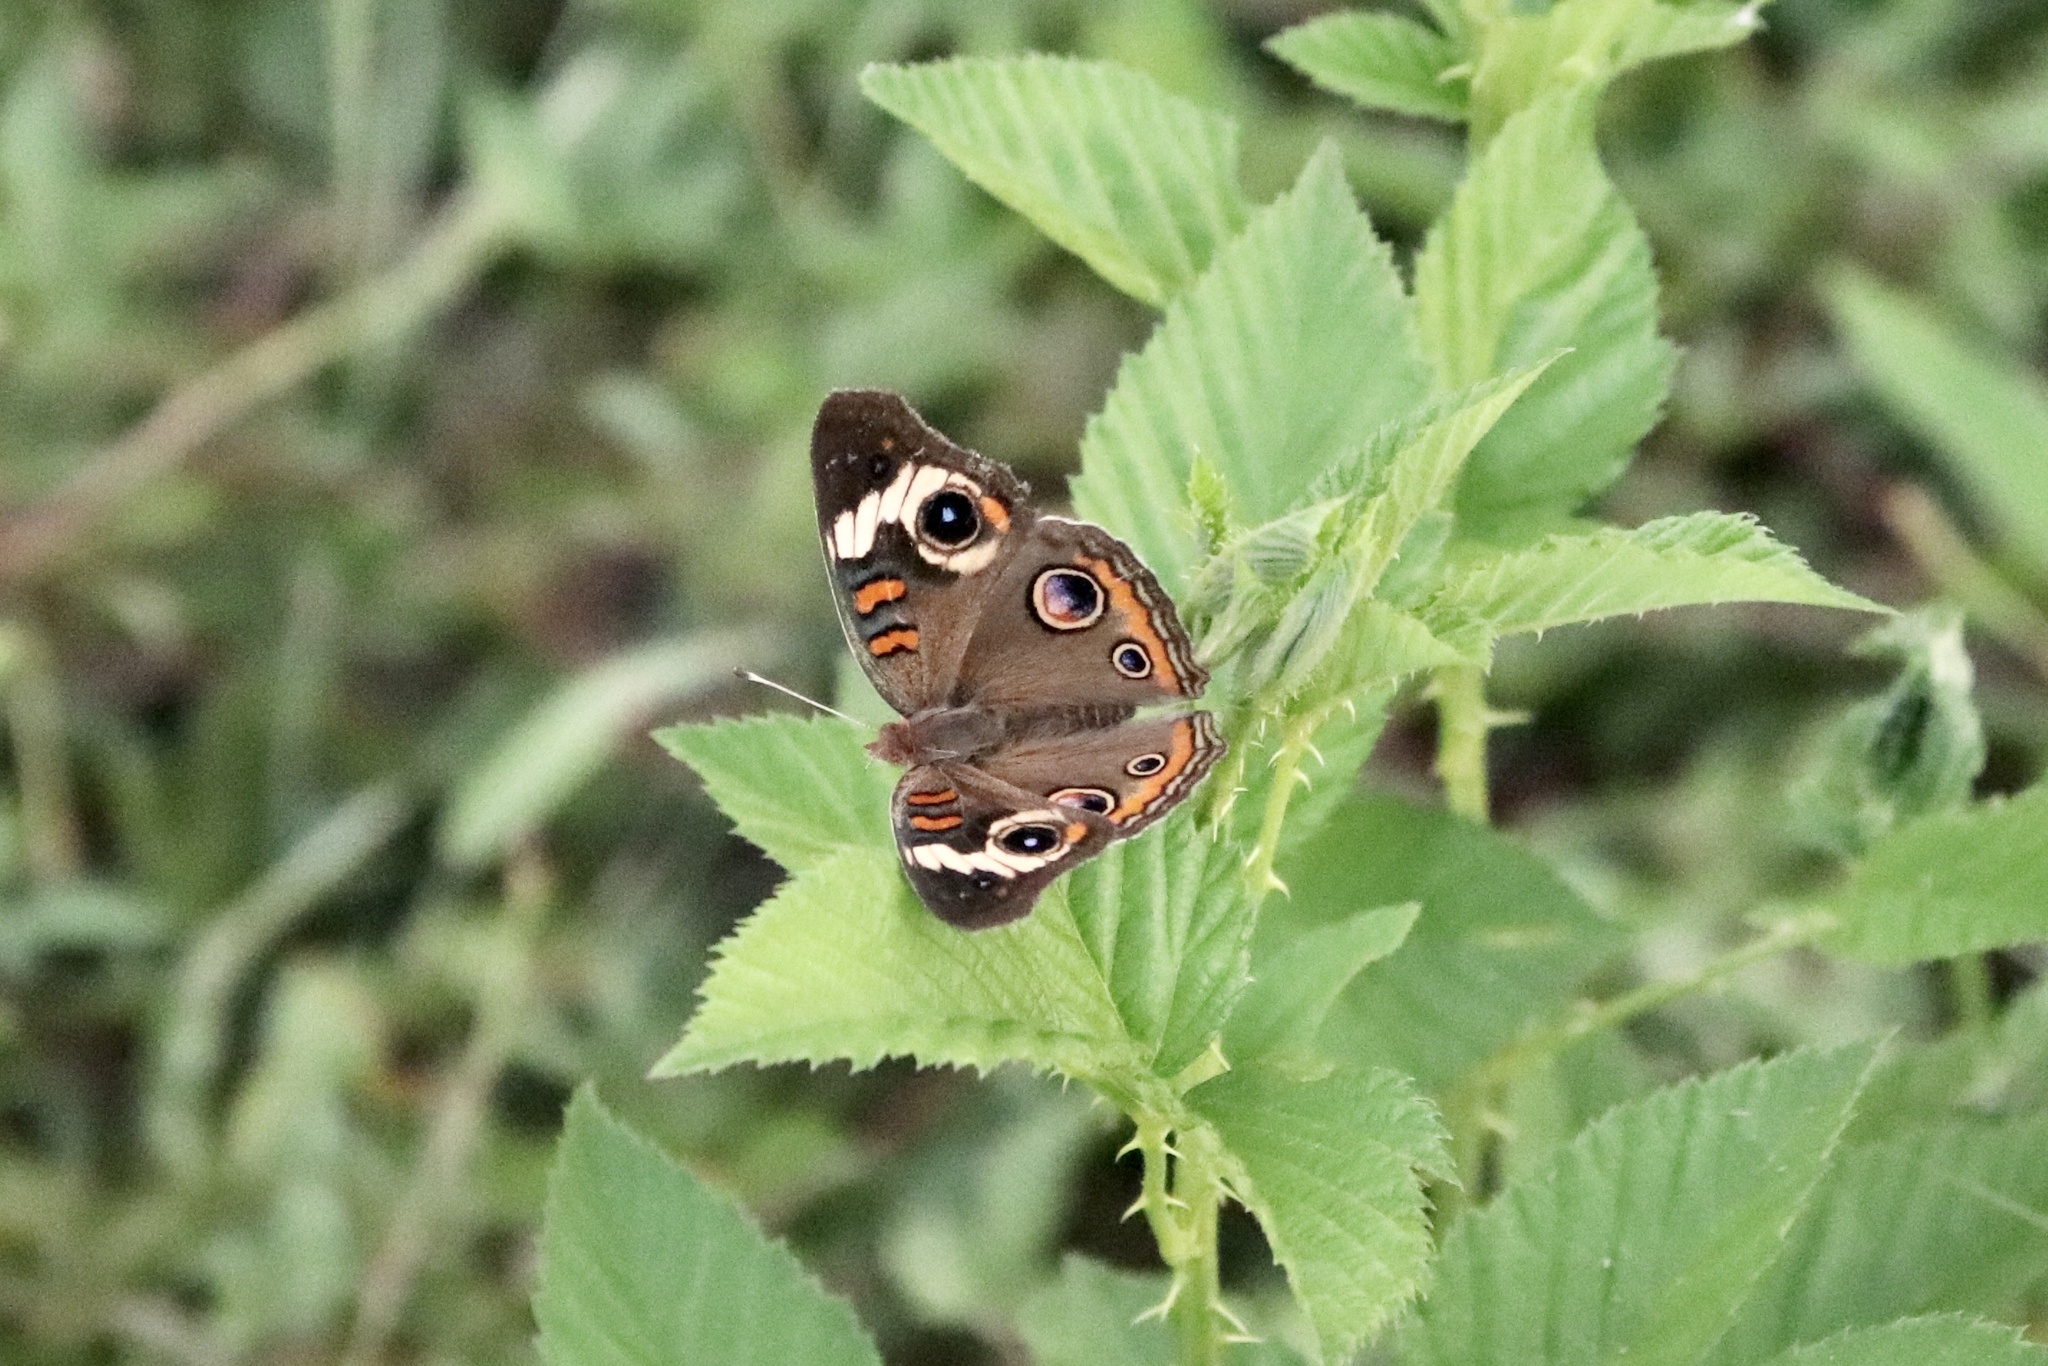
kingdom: Animalia
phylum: Arthropoda
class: Insecta
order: Lepidoptera
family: Nymphalidae
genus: Junonia
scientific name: Junonia coenia
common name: Common buckeye
